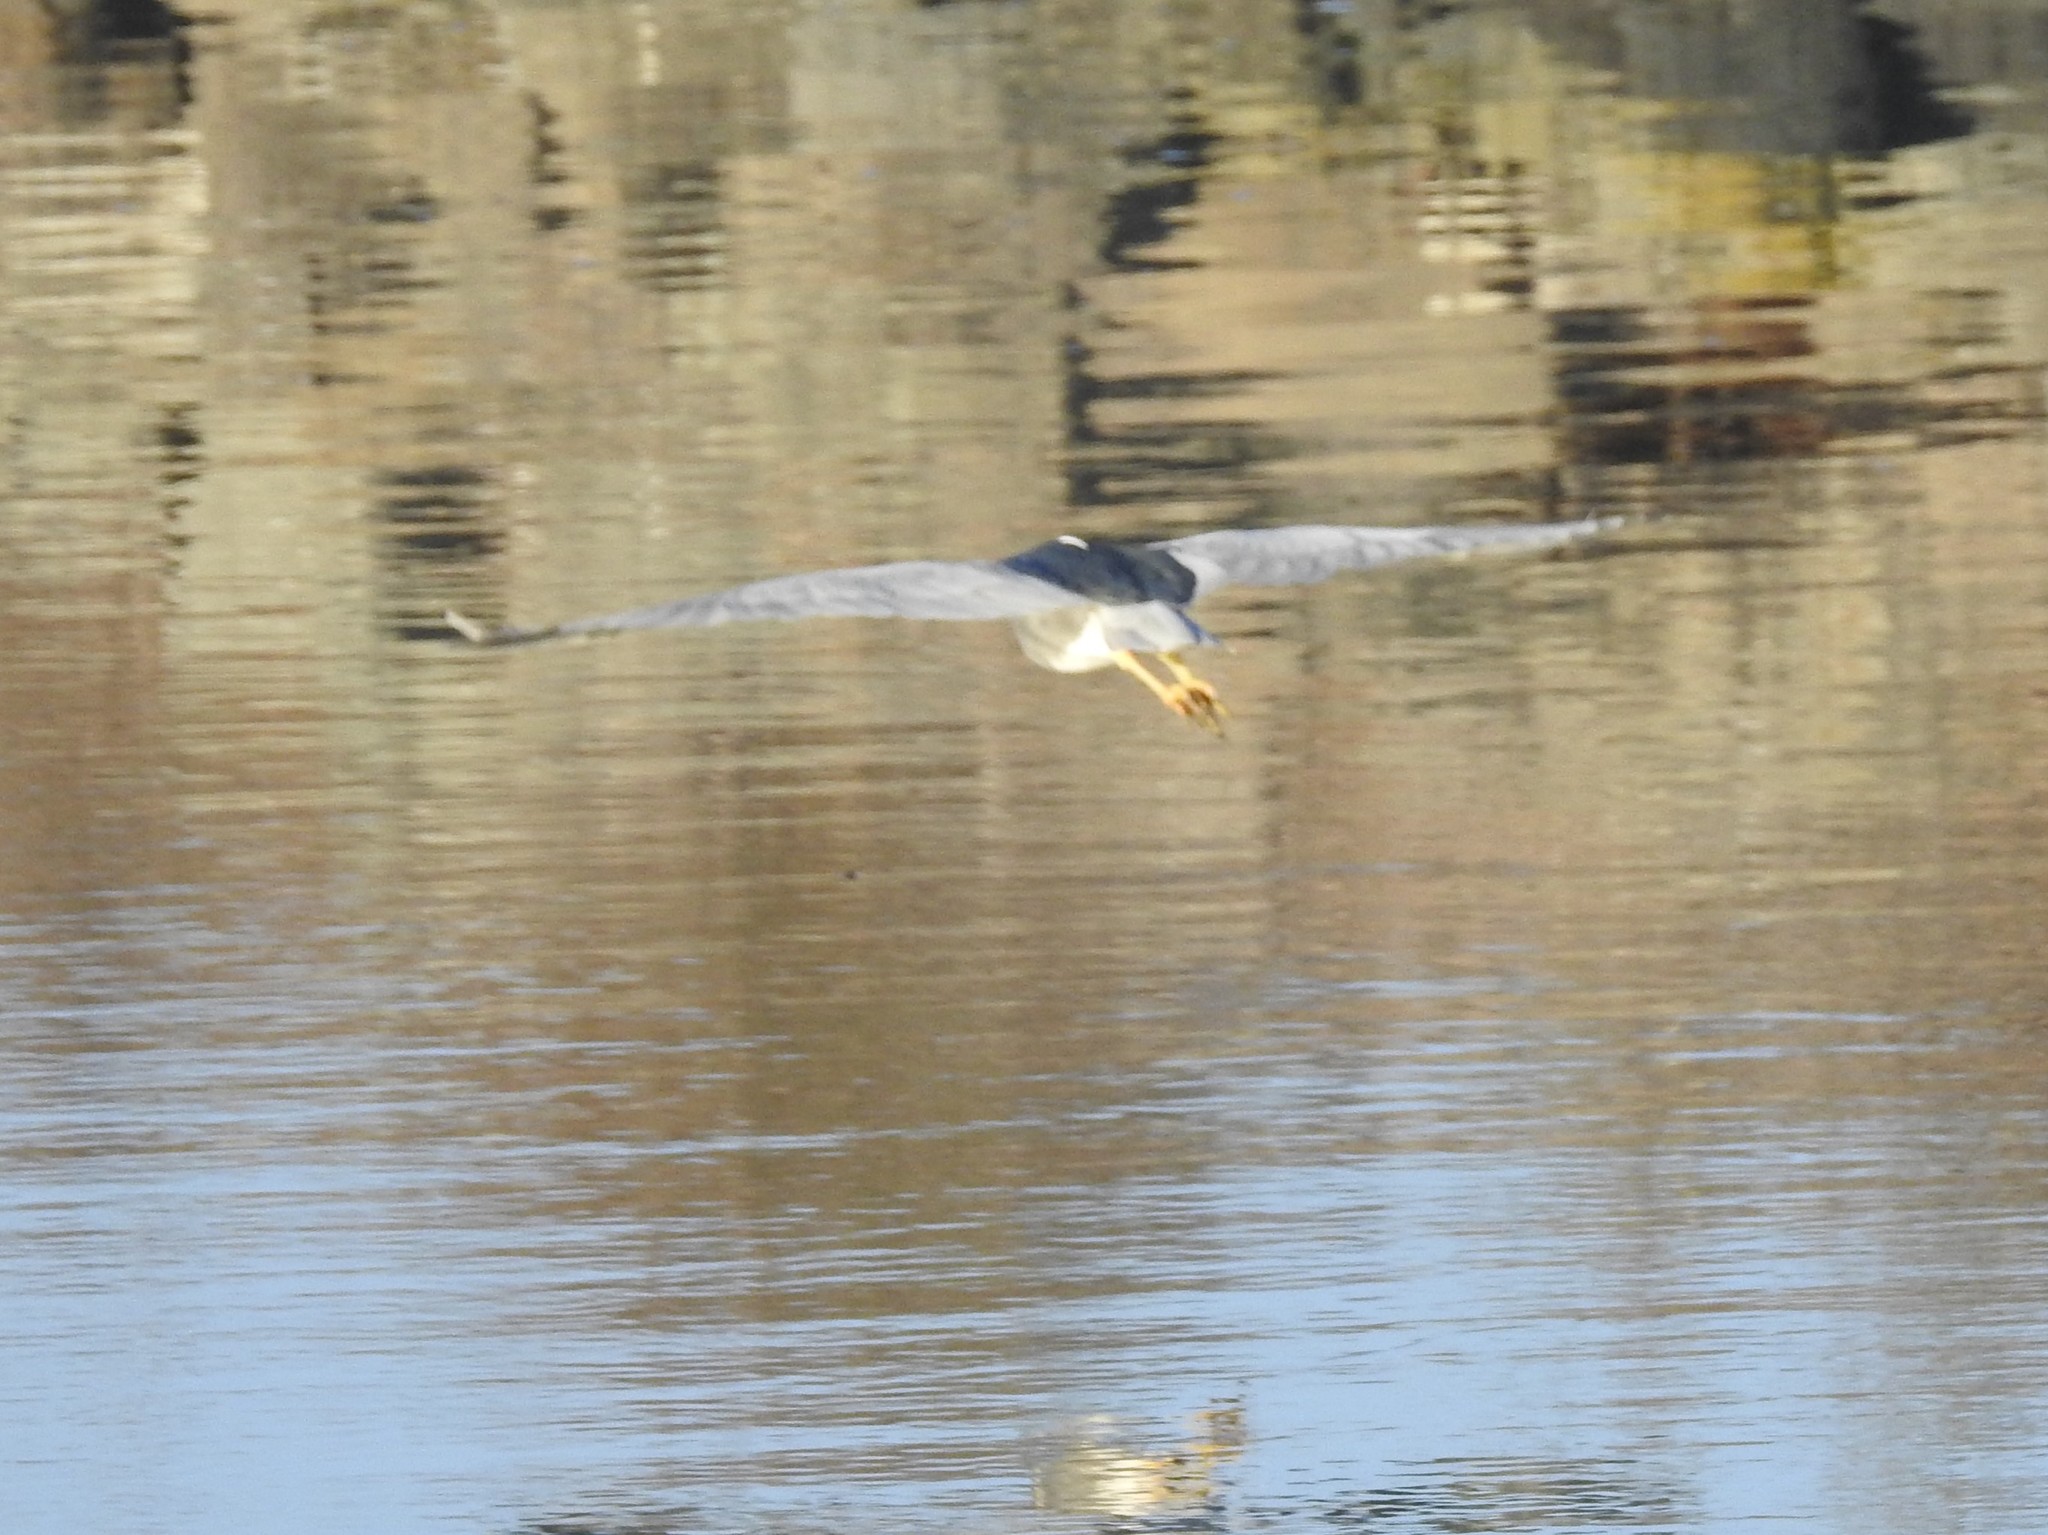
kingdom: Animalia
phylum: Chordata
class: Aves
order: Pelecaniformes
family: Ardeidae
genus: Nycticorax
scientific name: Nycticorax nycticorax
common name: Black-crowned night heron
